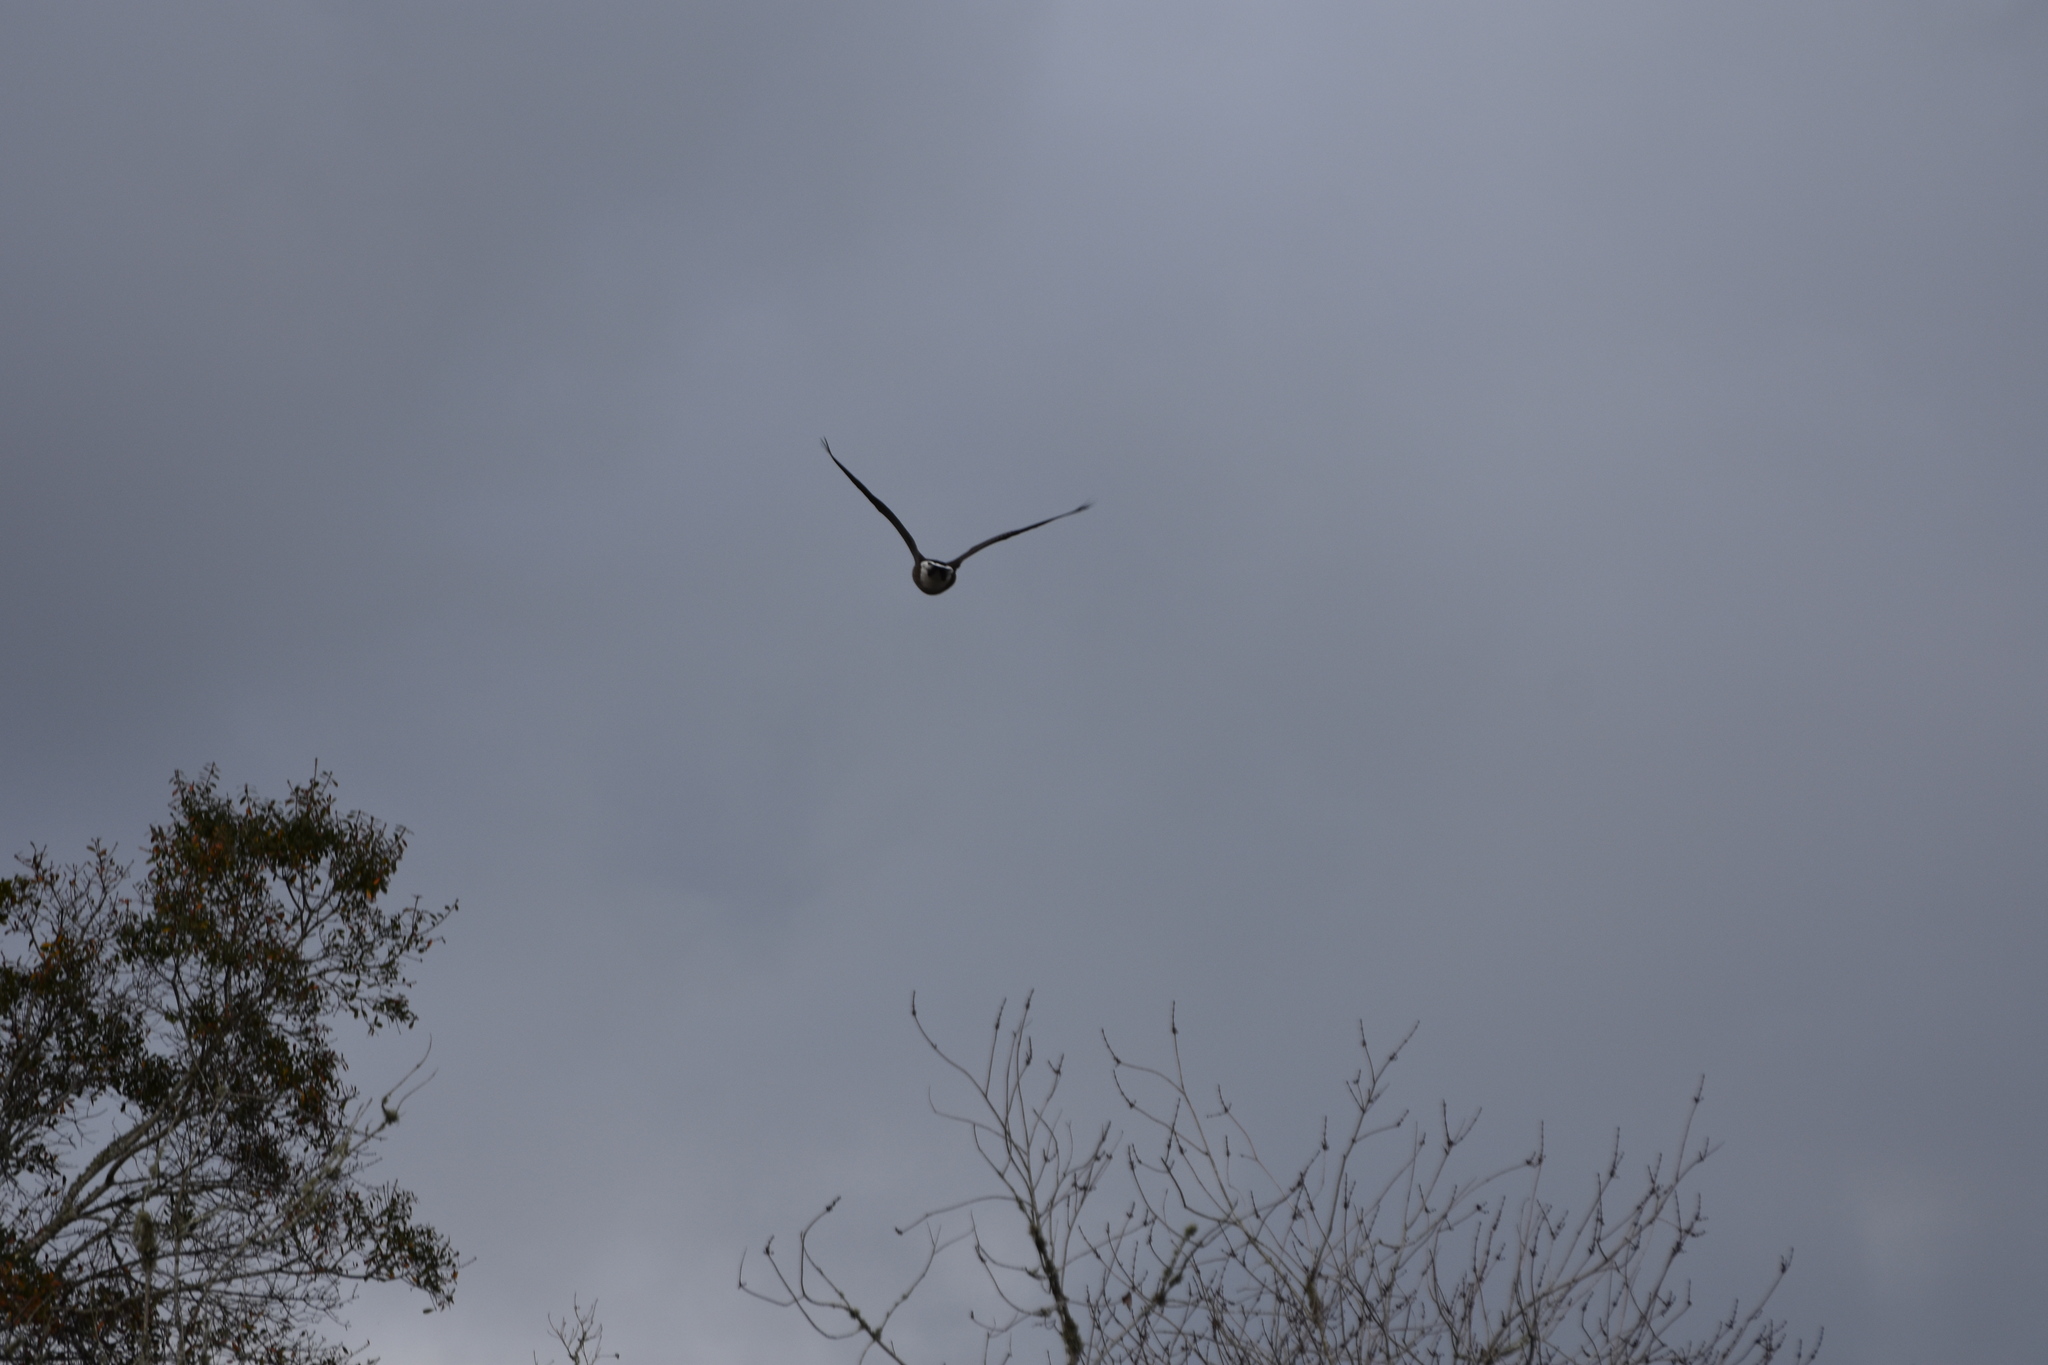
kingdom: Animalia
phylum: Chordata
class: Aves
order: Anseriformes
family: Anatidae
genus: Branta
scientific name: Branta canadensis
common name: Canada goose
